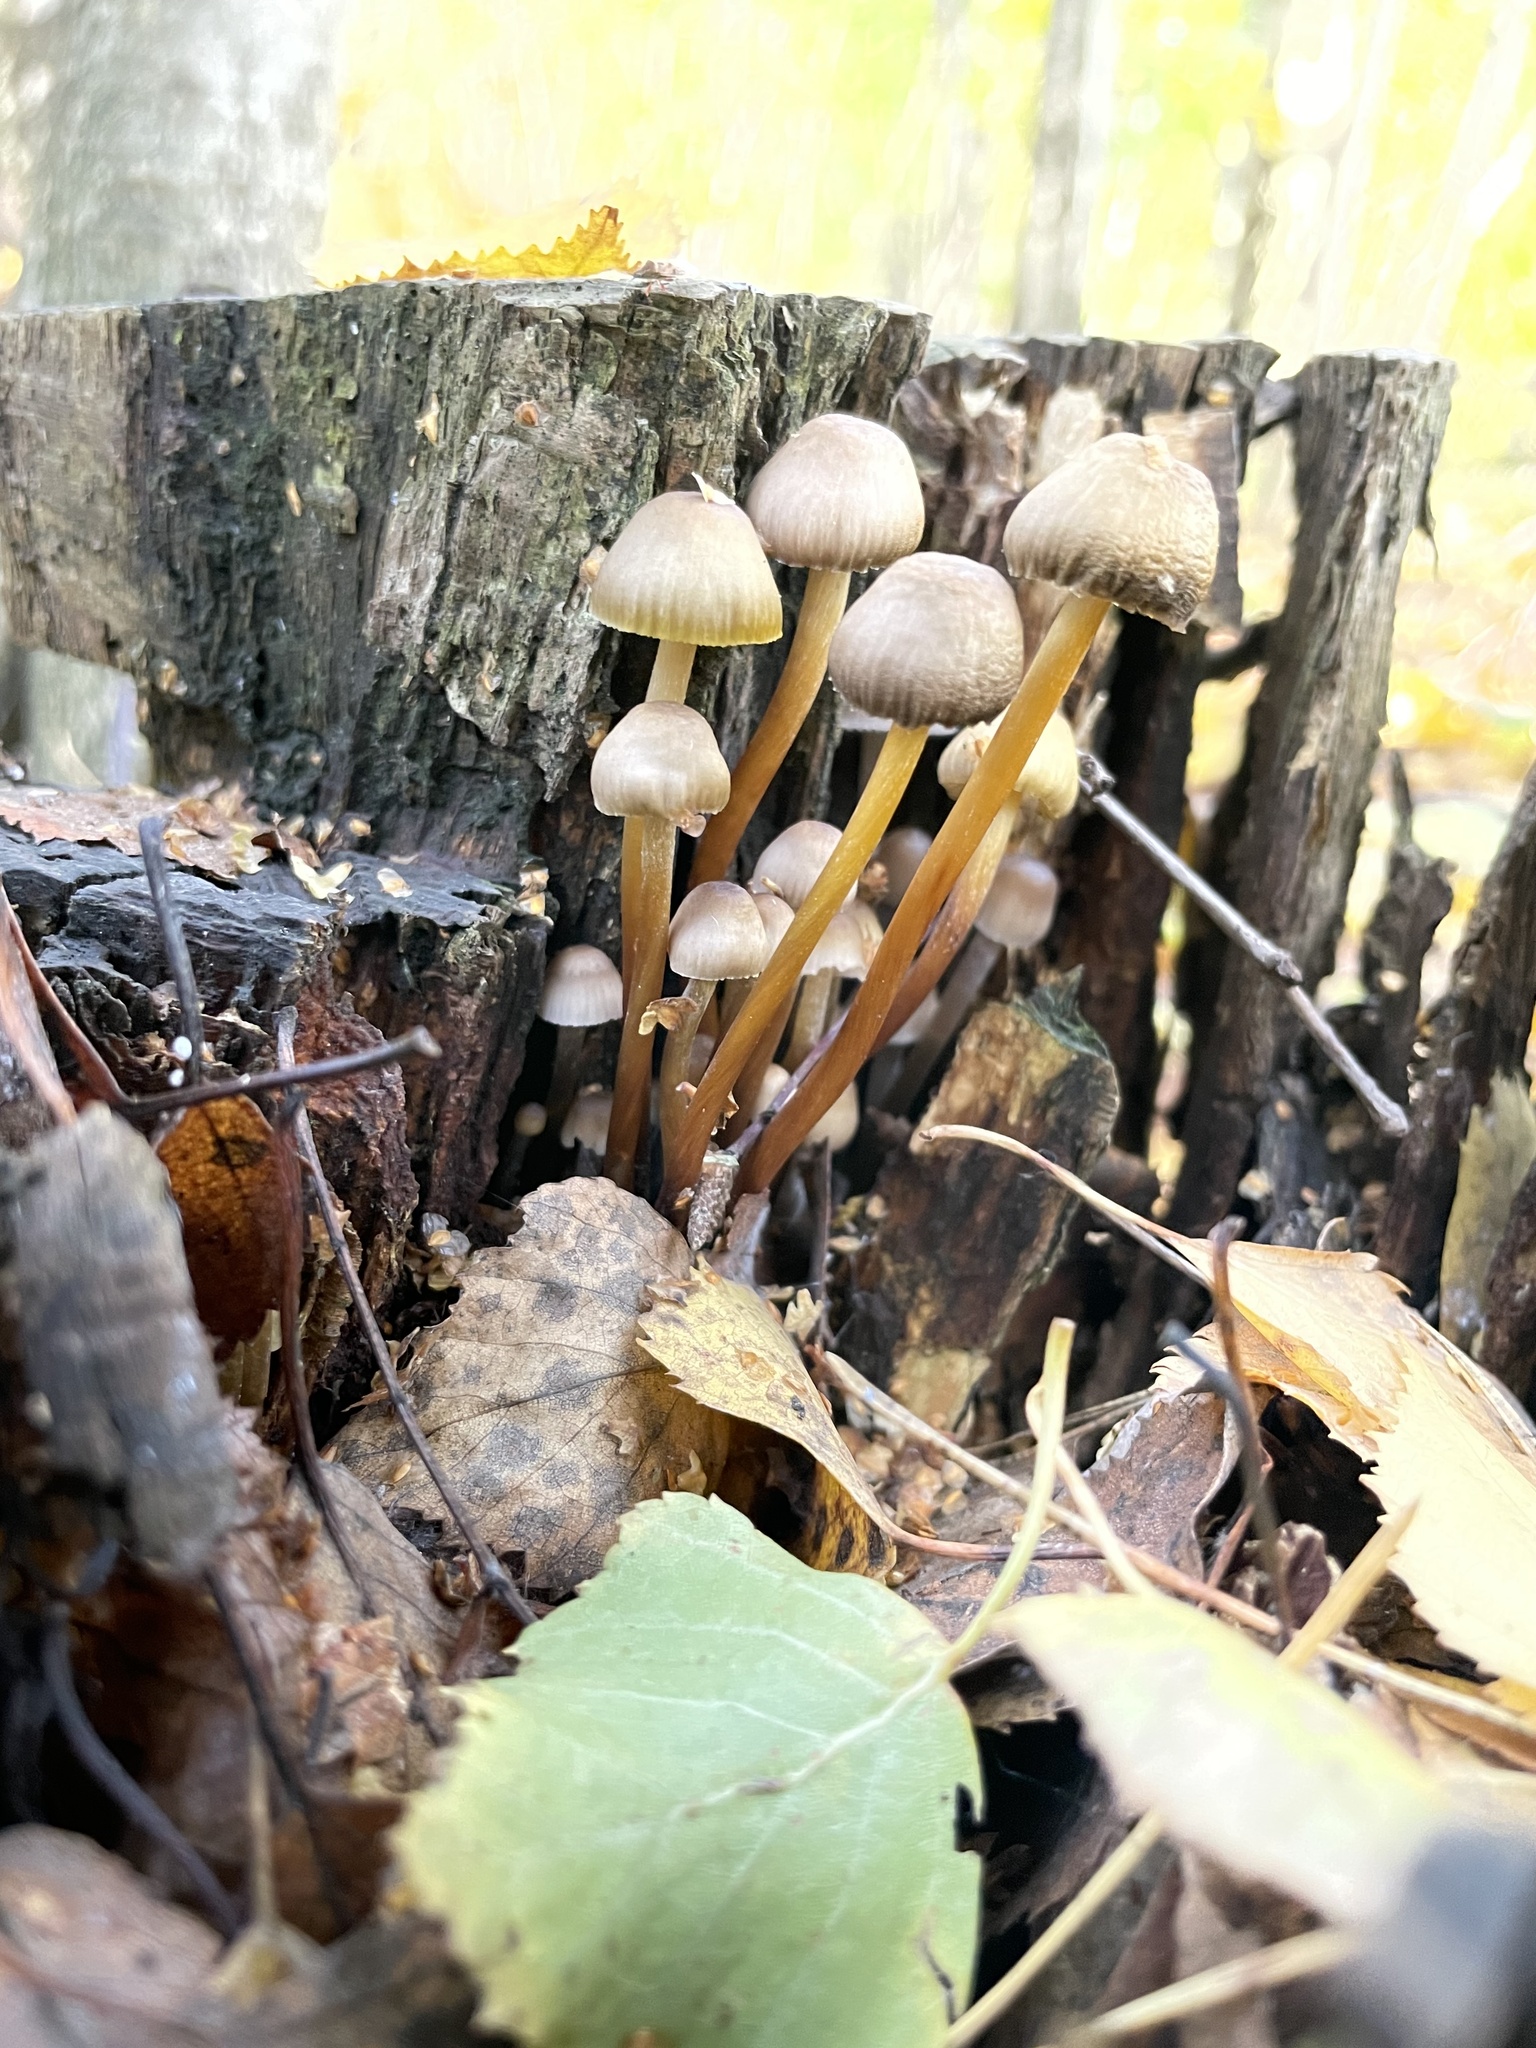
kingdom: Fungi
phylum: Basidiomycota
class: Agaricomycetes
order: Agaricales
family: Mycenaceae
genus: Mycena
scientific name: Mycena inclinata
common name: Clustered bonnet
